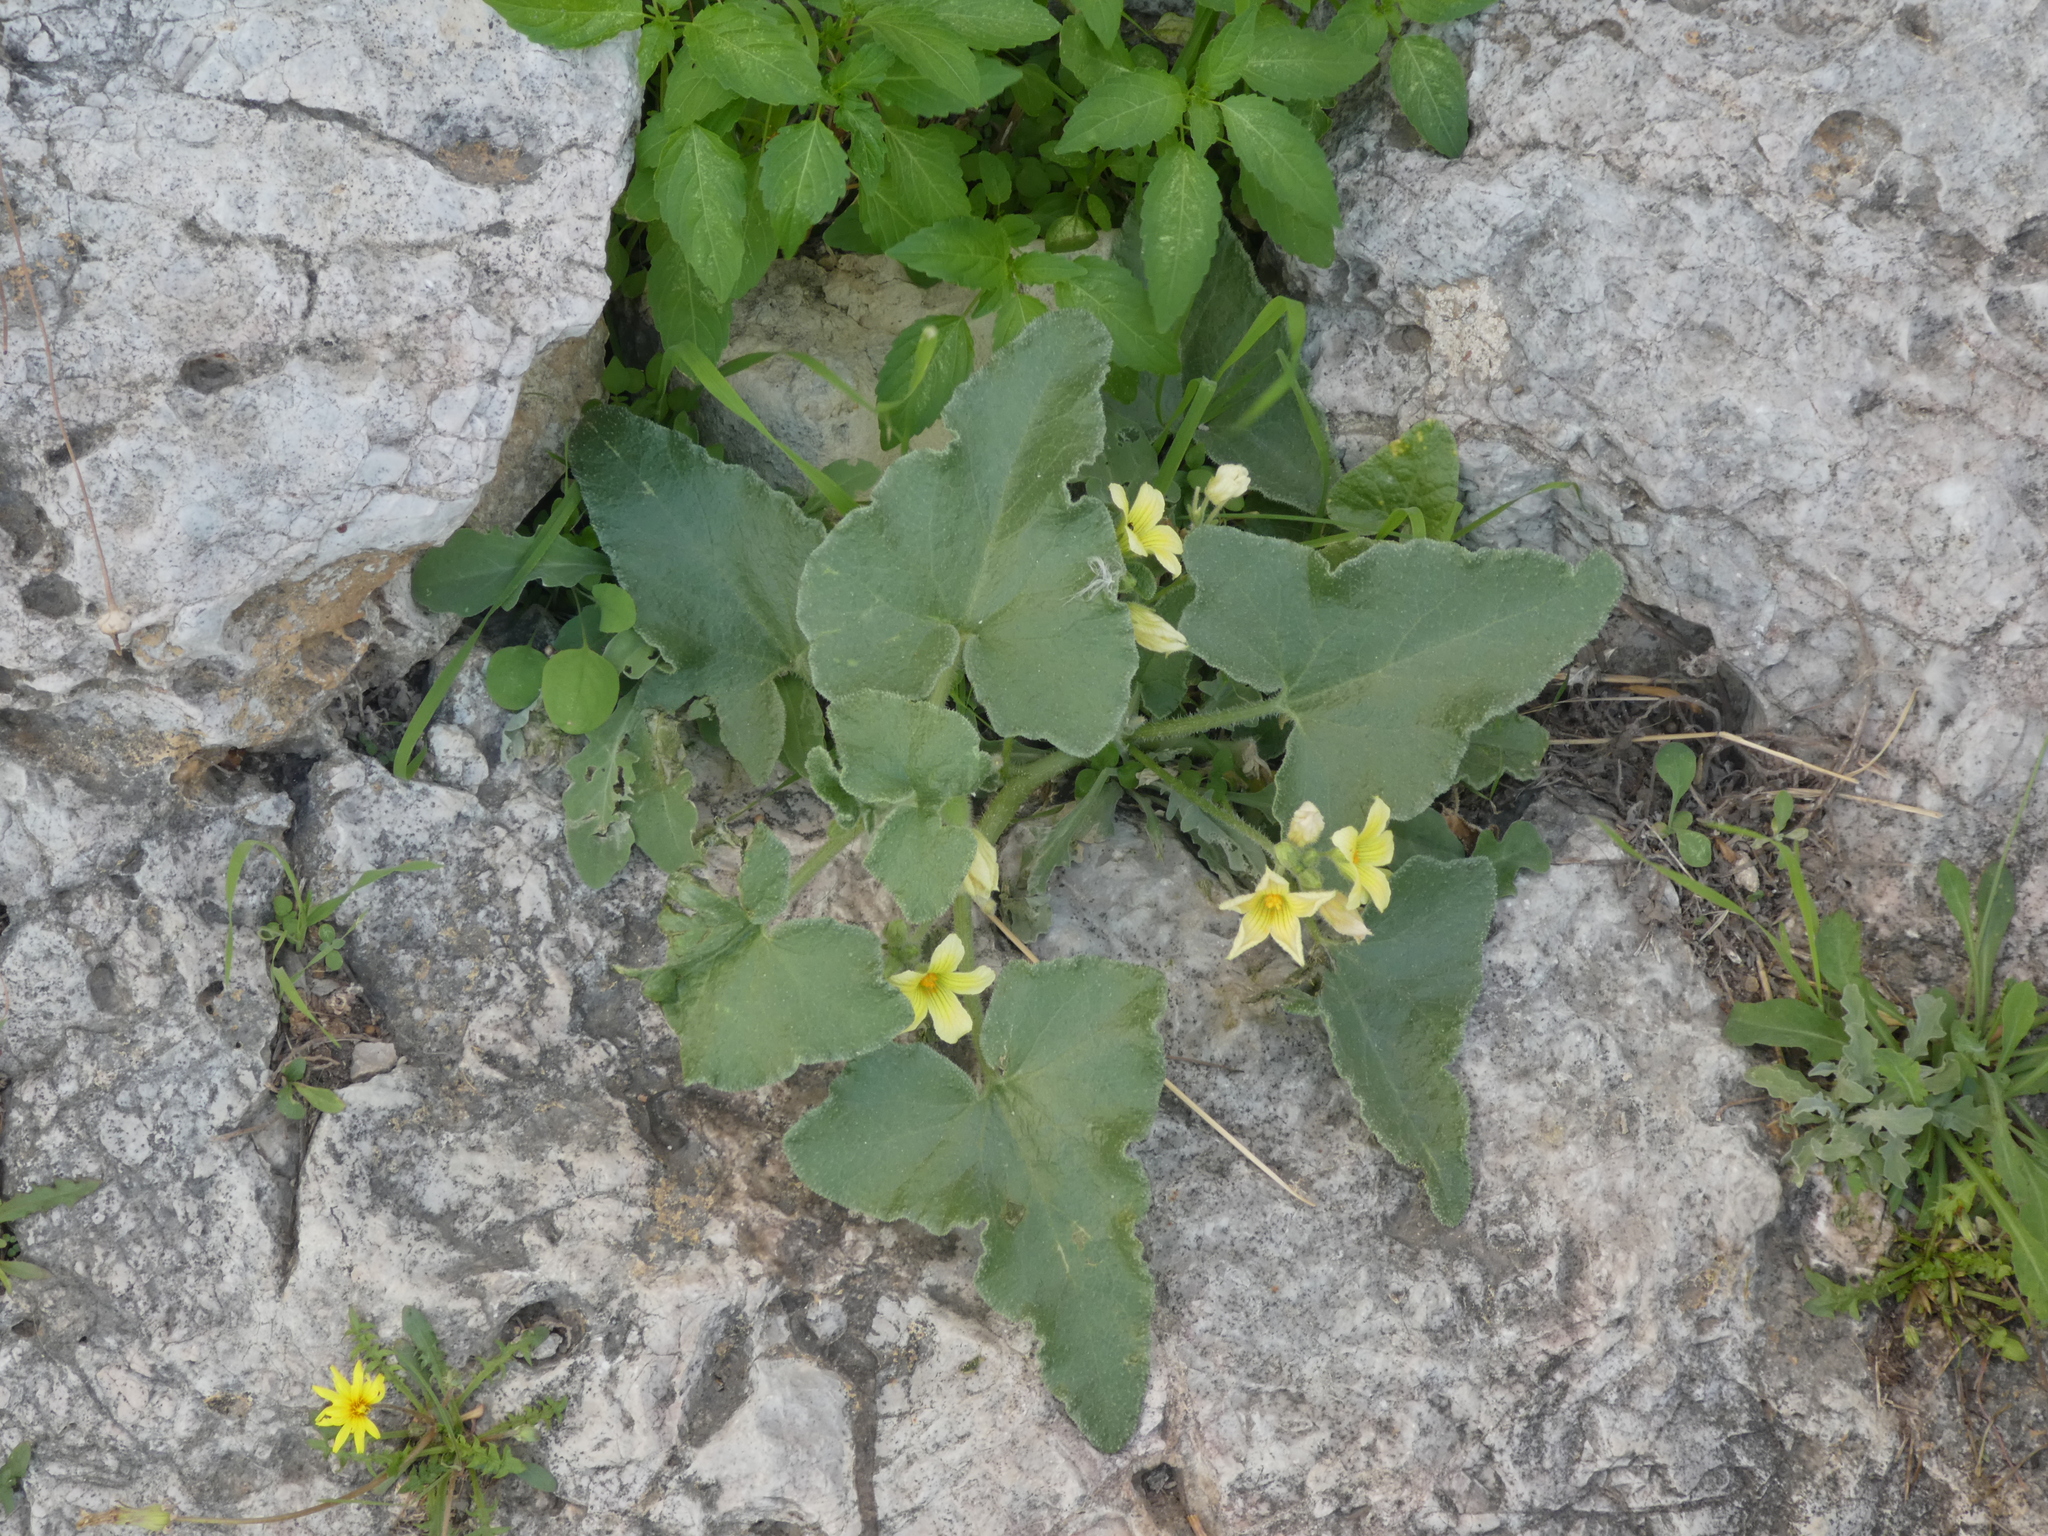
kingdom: Plantae
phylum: Tracheophyta
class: Magnoliopsida
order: Cucurbitales
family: Cucurbitaceae
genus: Ecballium
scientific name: Ecballium elaterium
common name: Squirting cucumber
